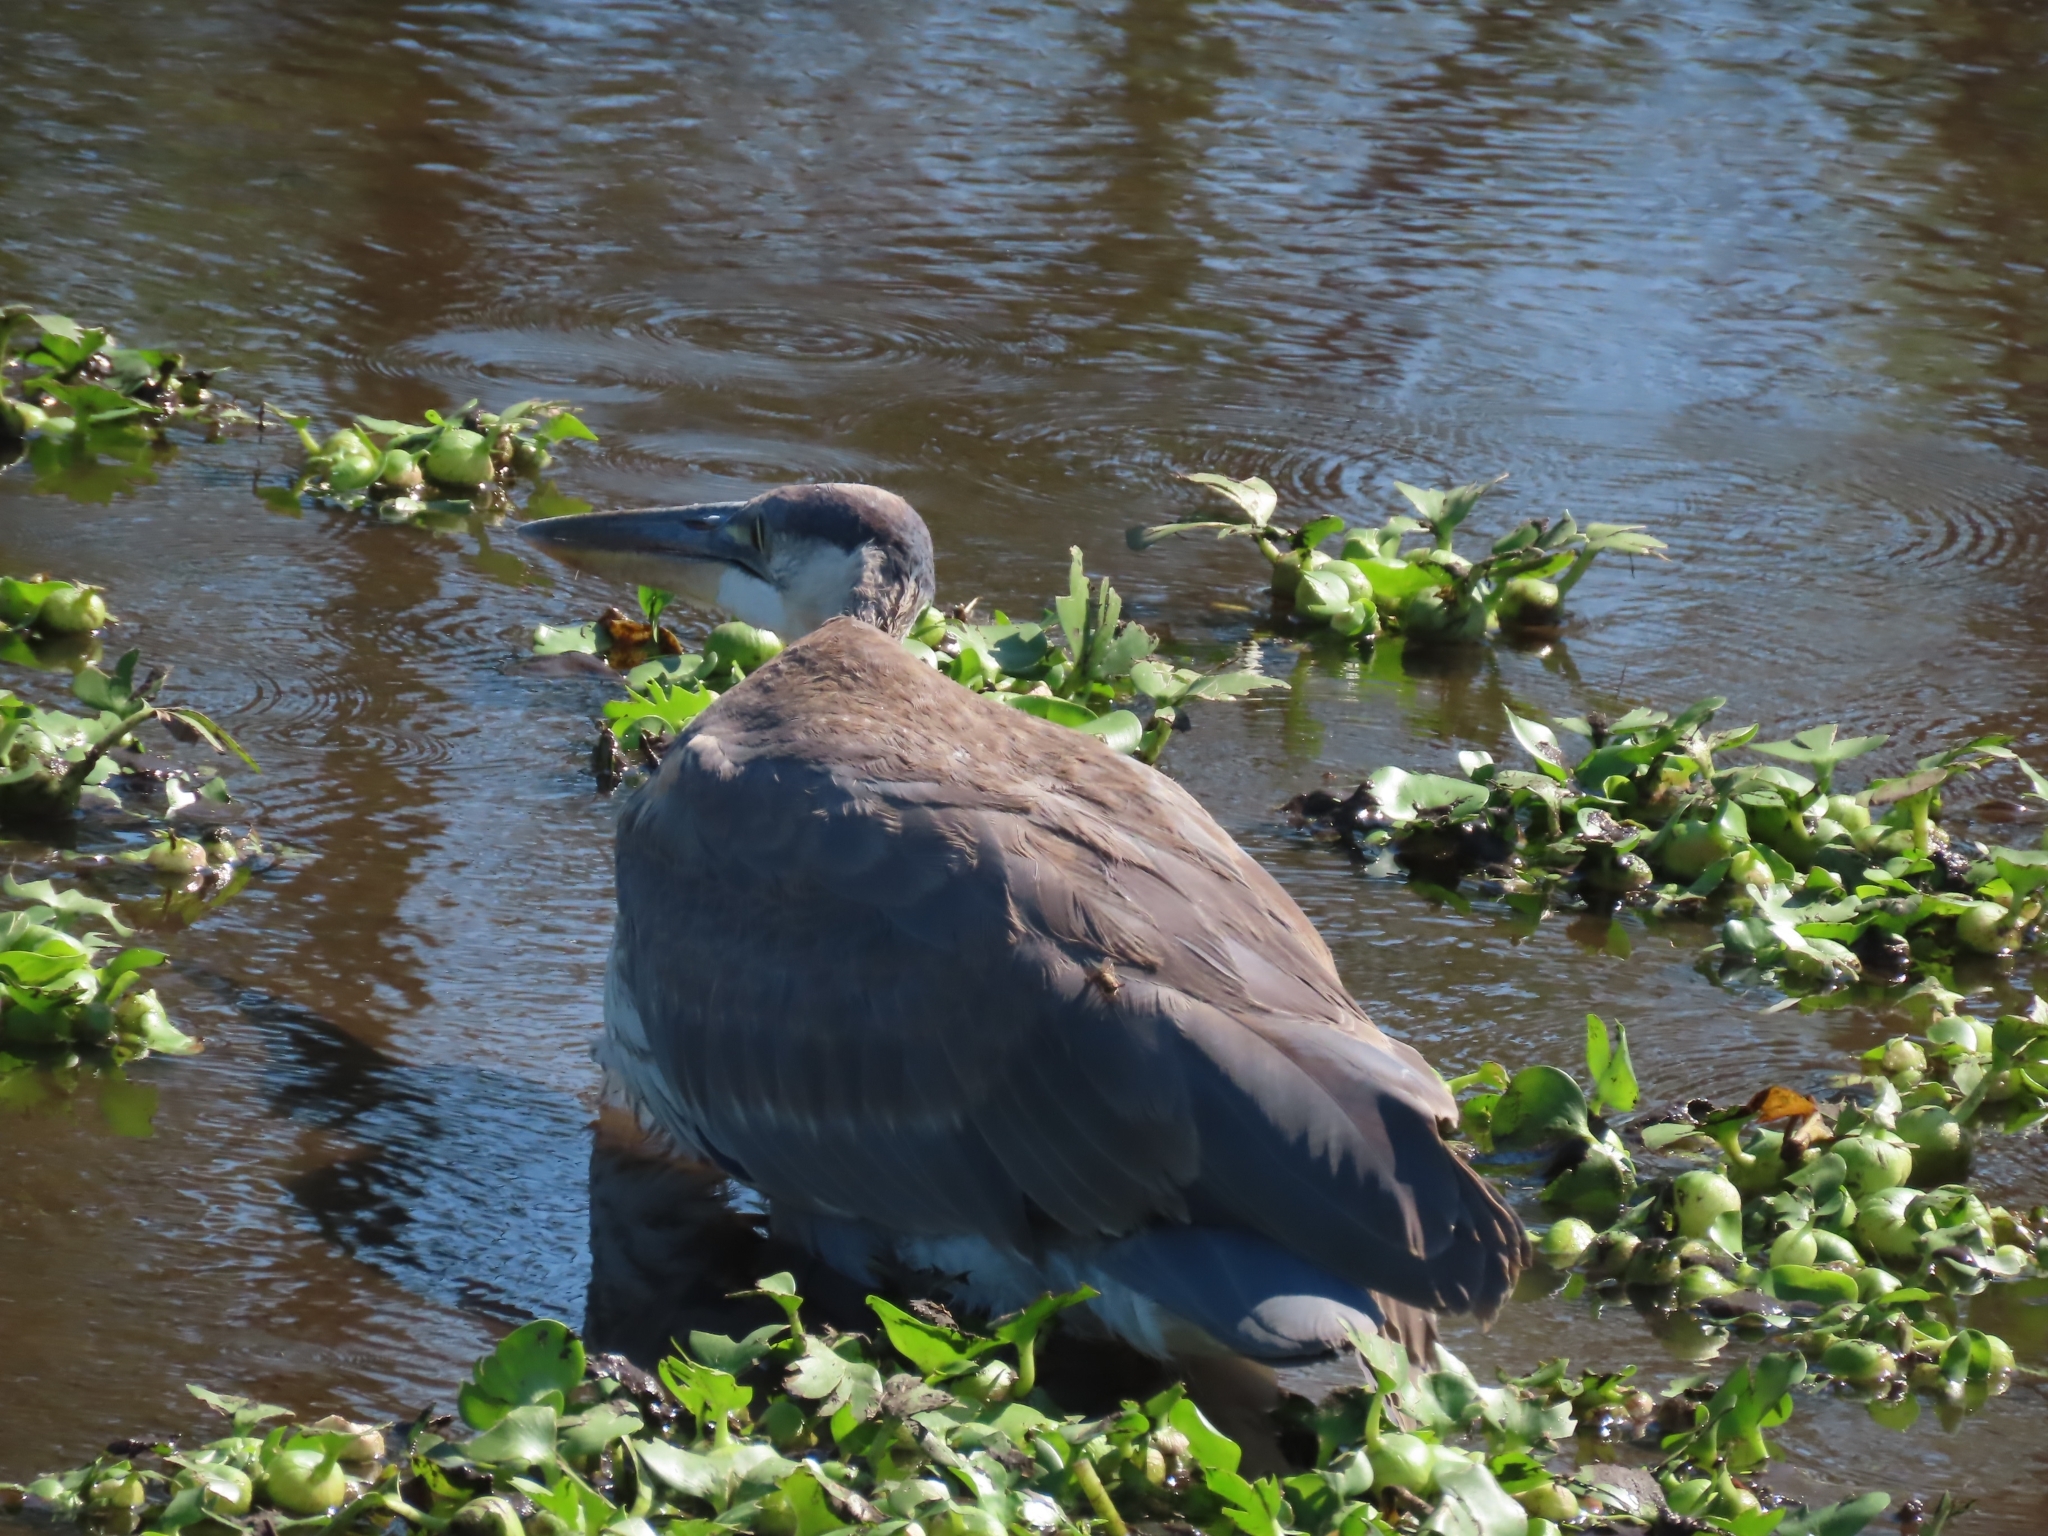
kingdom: Animalia
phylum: Chordata
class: Aves
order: Pelecaniformes
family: Ardeidae
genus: Ardea
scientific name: Ardea herodias
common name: Great blue heron
